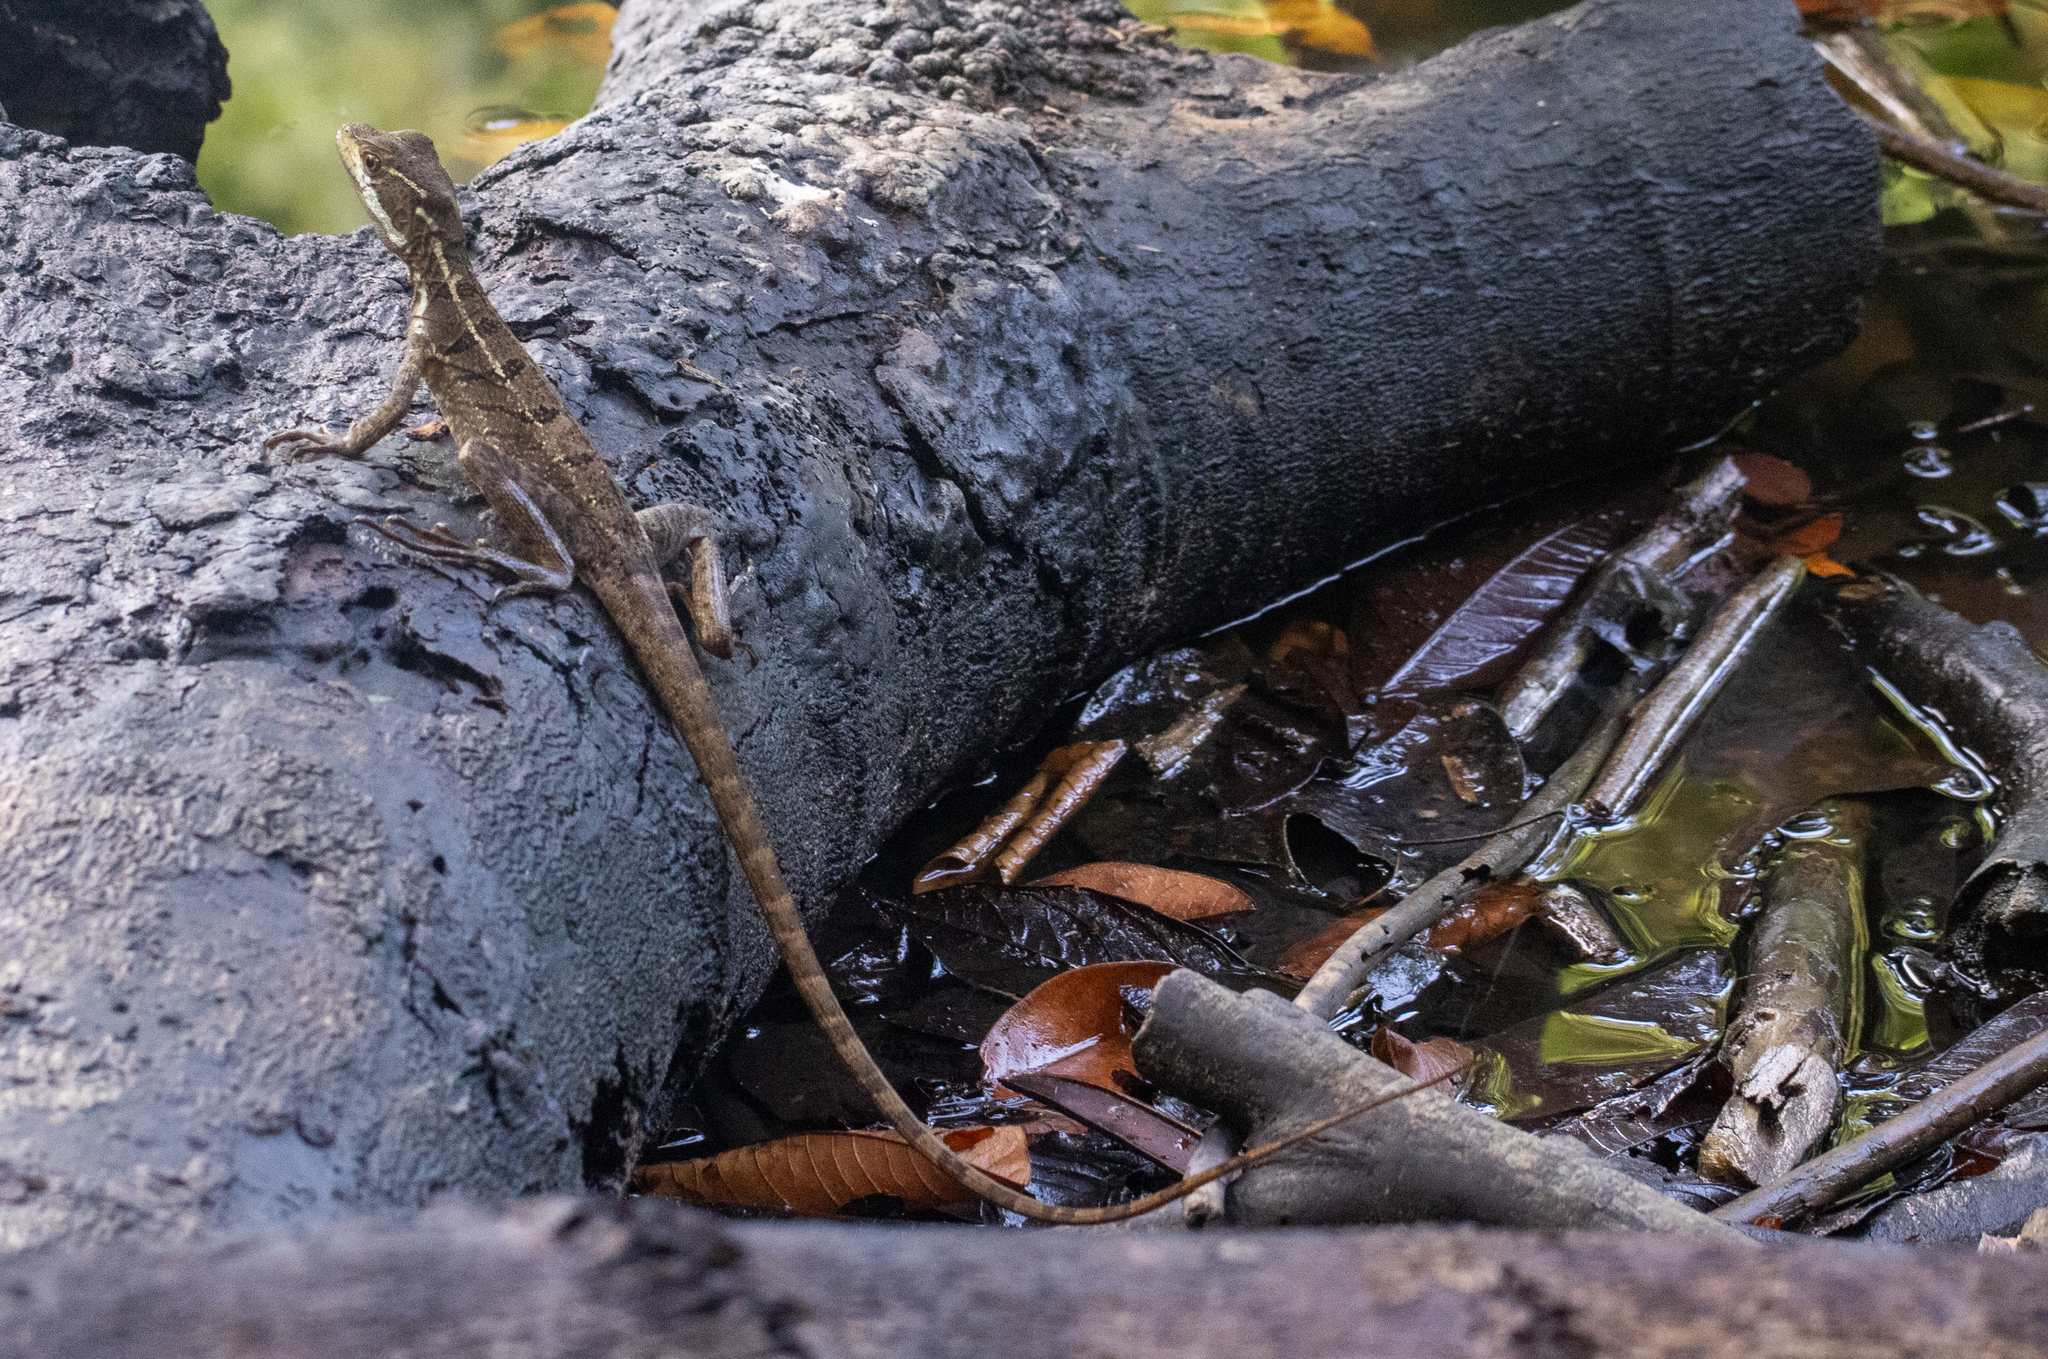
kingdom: Animalia
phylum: Chordata
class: Squamata
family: Corytophanidae
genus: Basiliscus
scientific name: Basiliscus basiliscus
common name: Common basilisk
